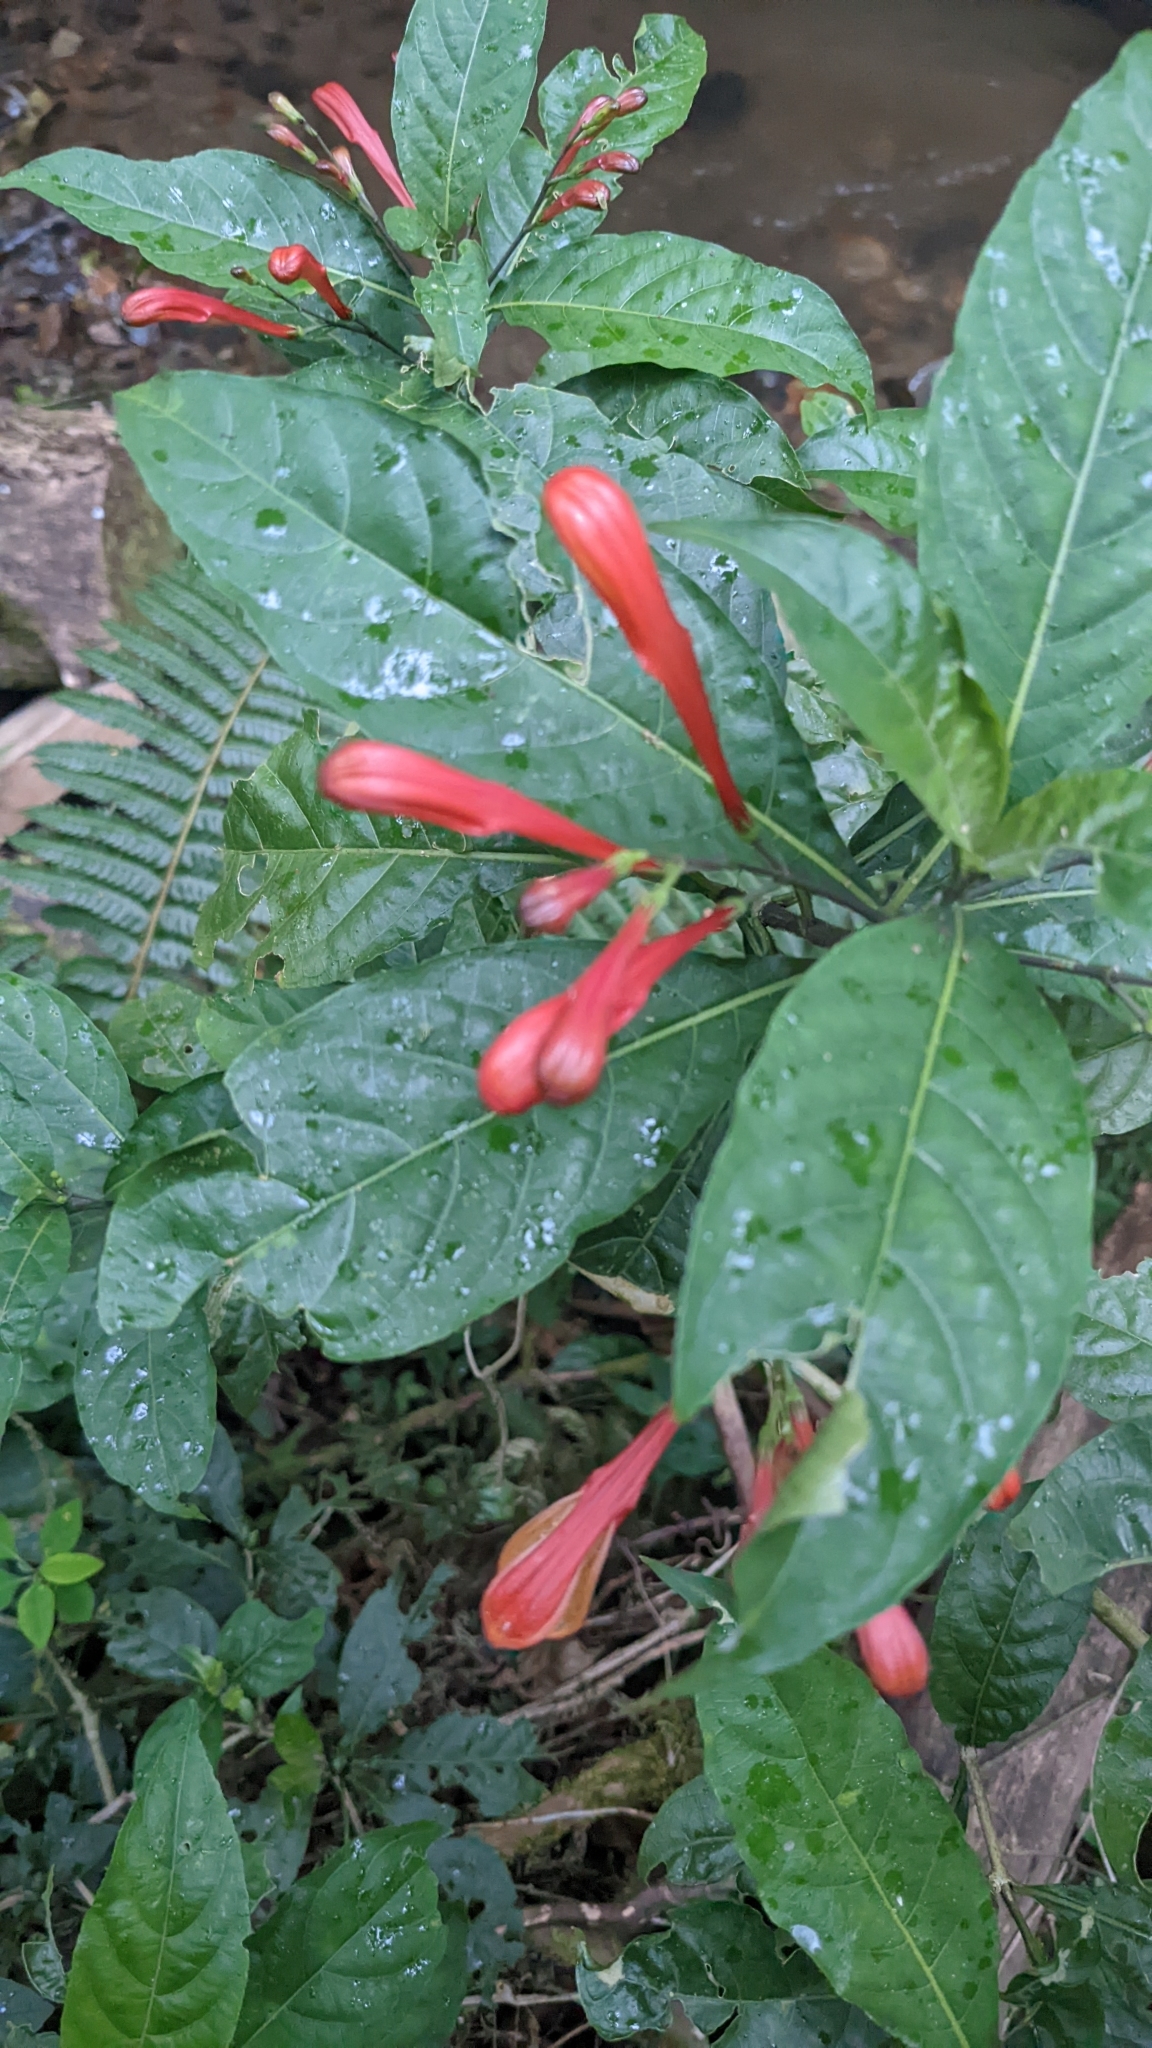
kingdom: Plantae
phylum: Tracheophyta
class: Magnoliopsida
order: Lamiales
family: Acanthaceae
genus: Justicia
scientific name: Justicia macrantha
